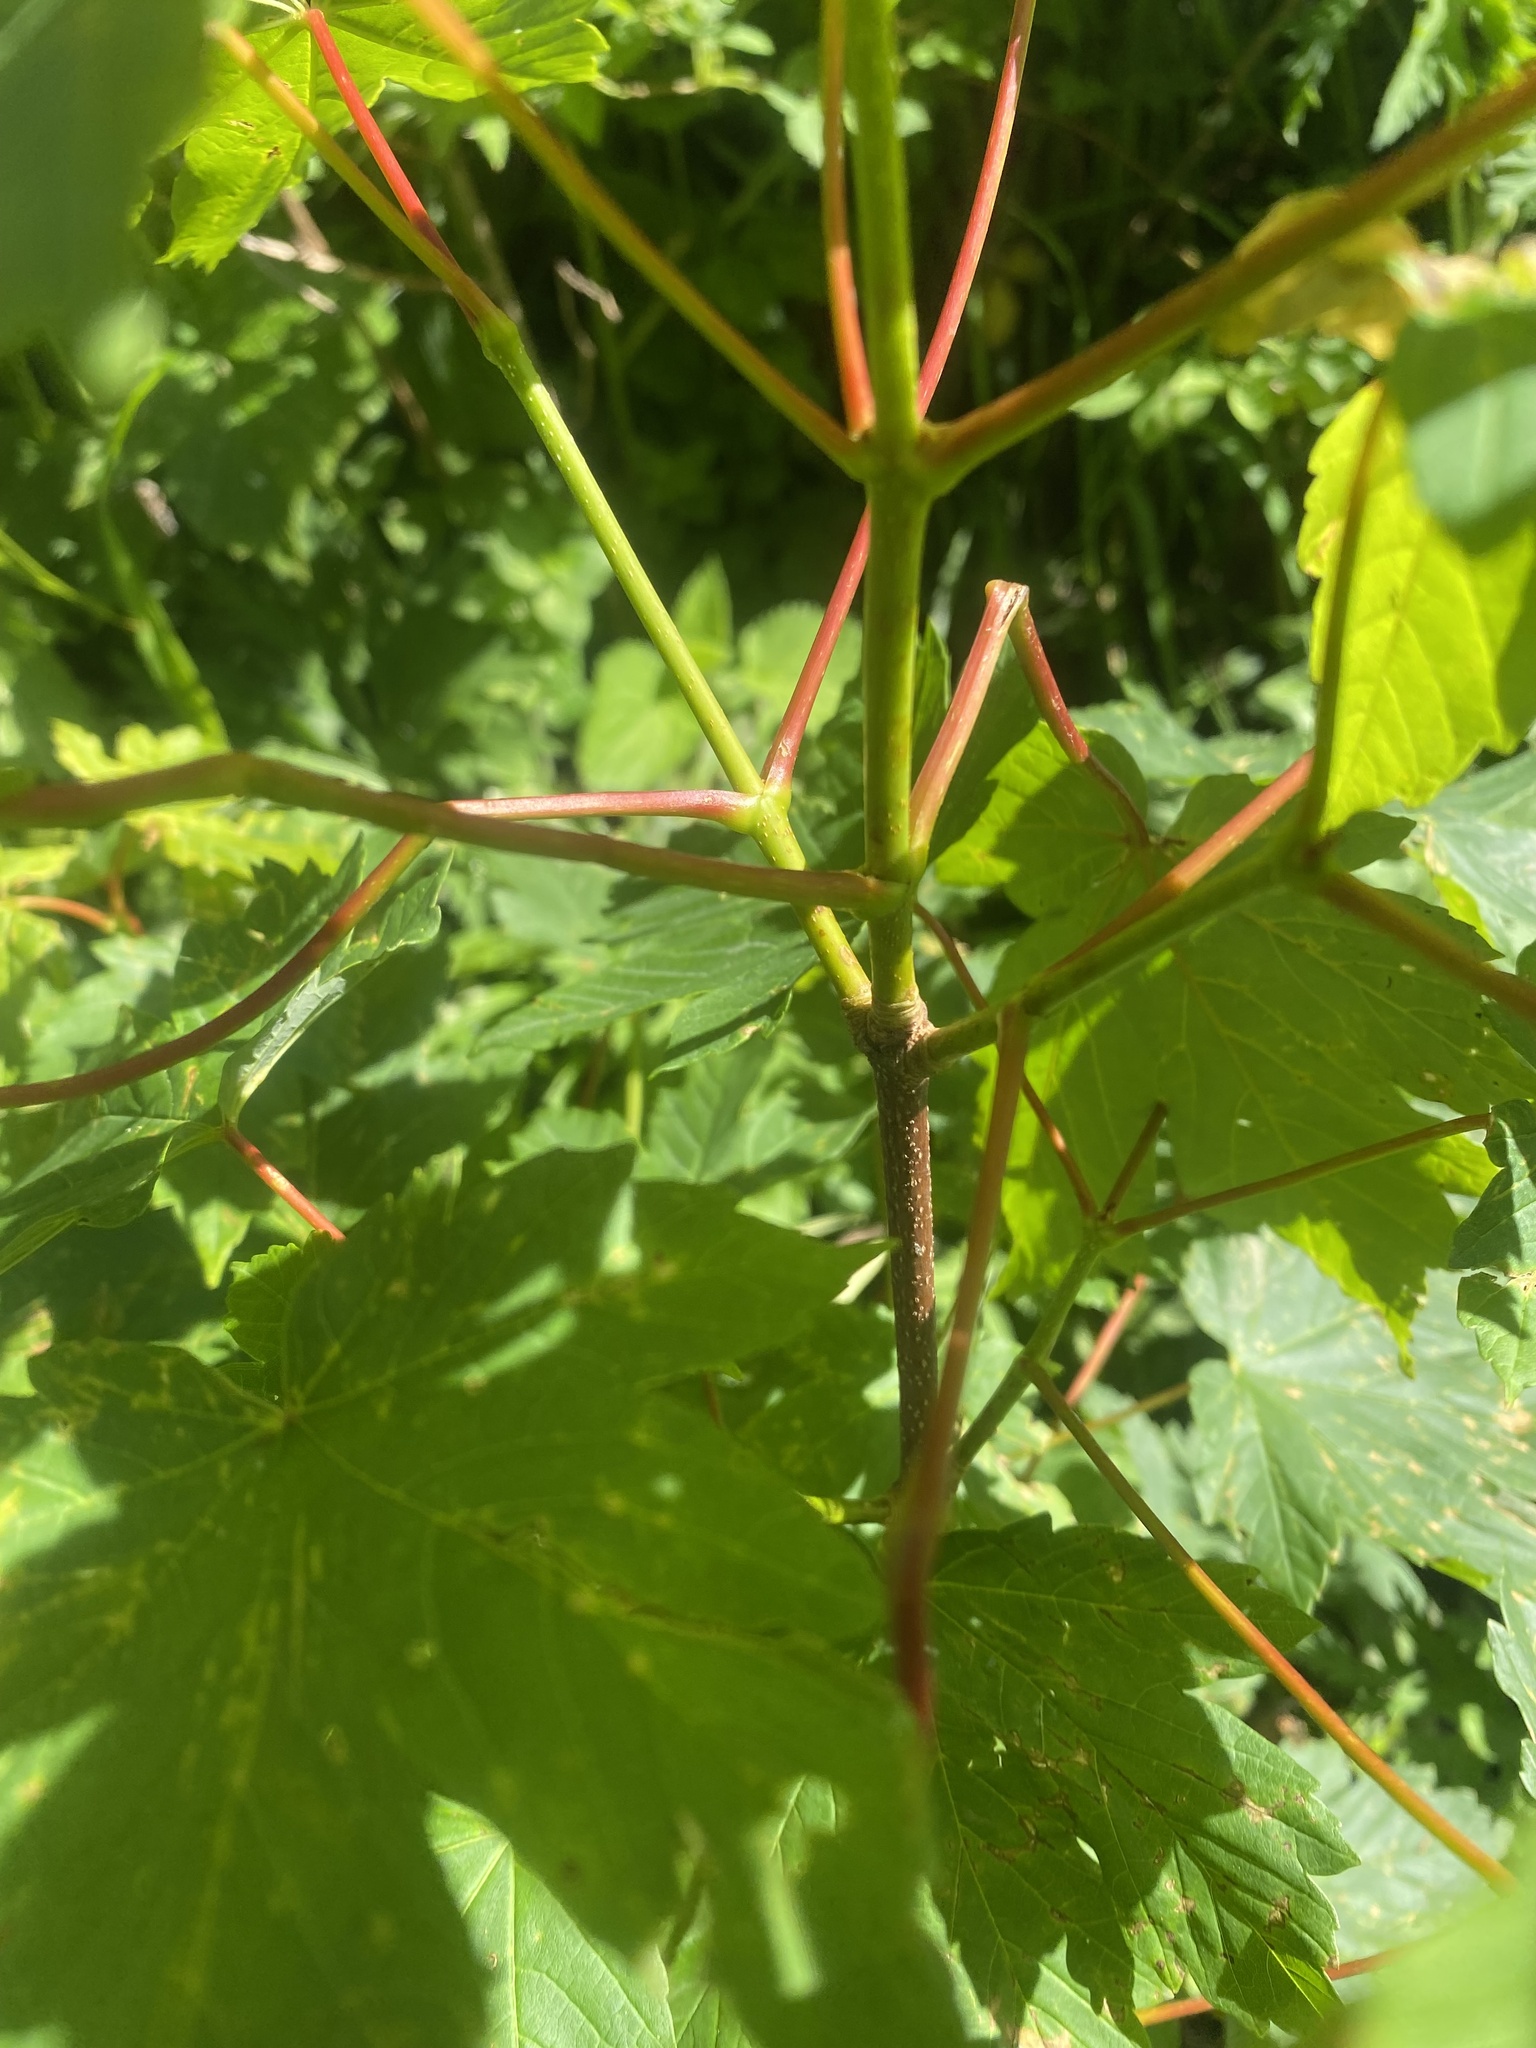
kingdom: Plantae
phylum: Tracheophyta
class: Magnoliopsida
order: Sapindales
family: Sapindaceae
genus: Acer
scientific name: Acer pseudoplatanus
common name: Sycamore
